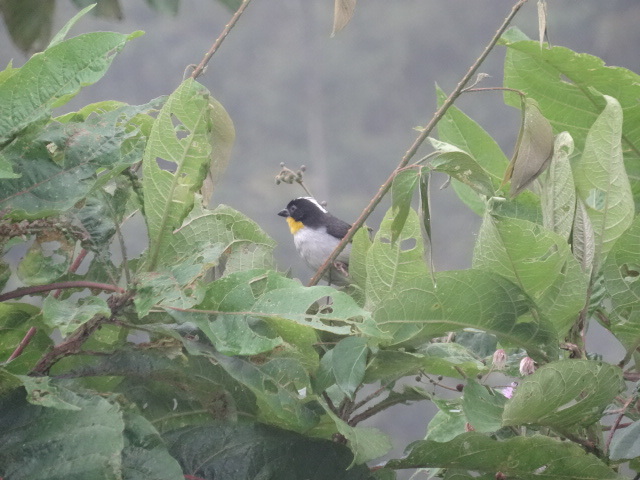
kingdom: Animalia
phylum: Chordata
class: Aves
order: Passeriformes
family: Passerellidae
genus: Atlapetes
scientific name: Atlapetes albinucha
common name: White-naped brush-finch
